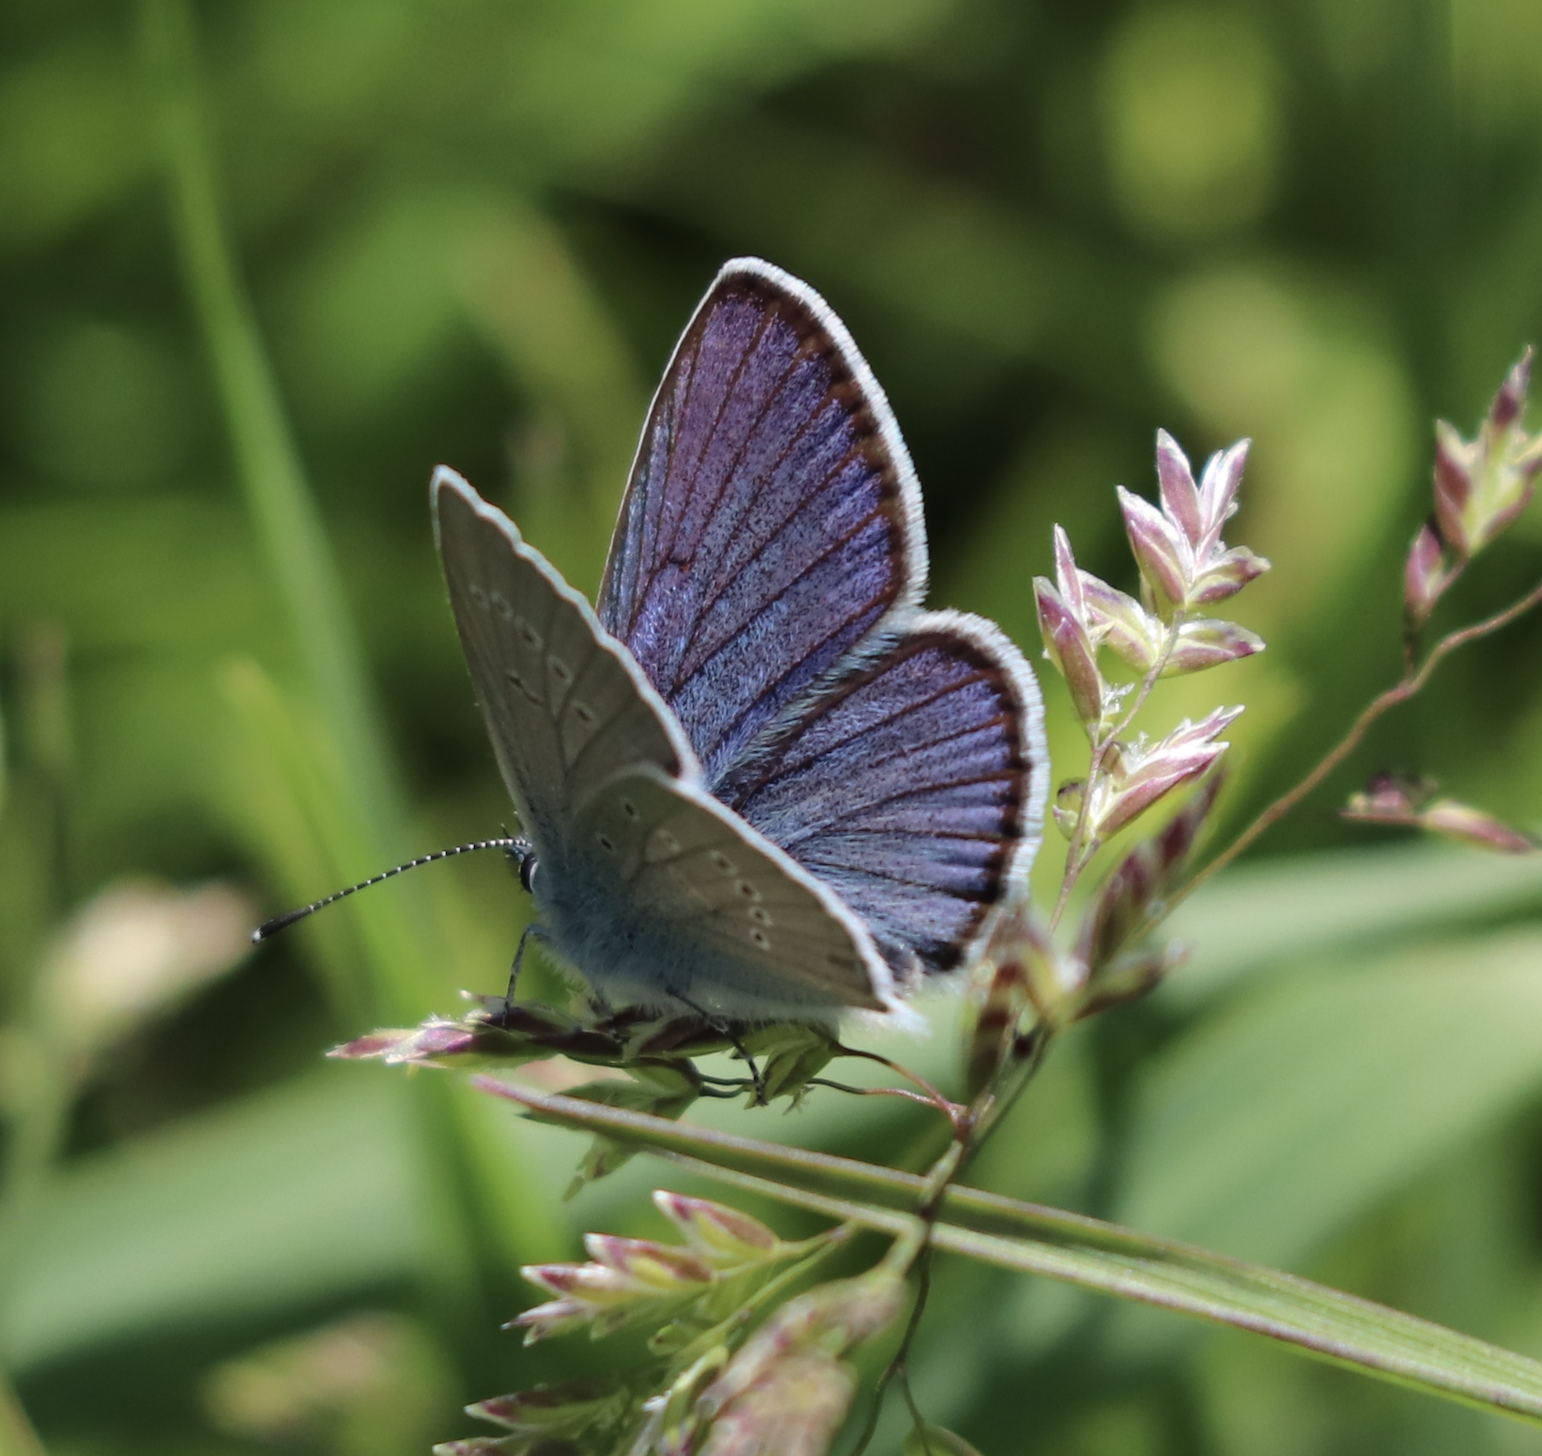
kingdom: Animalia
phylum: Arthropoda
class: Insecta
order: Lepidoptera
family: Lycaenidae
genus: Cyaniris
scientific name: Cyaniris semiargus
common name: Mazarine blue
